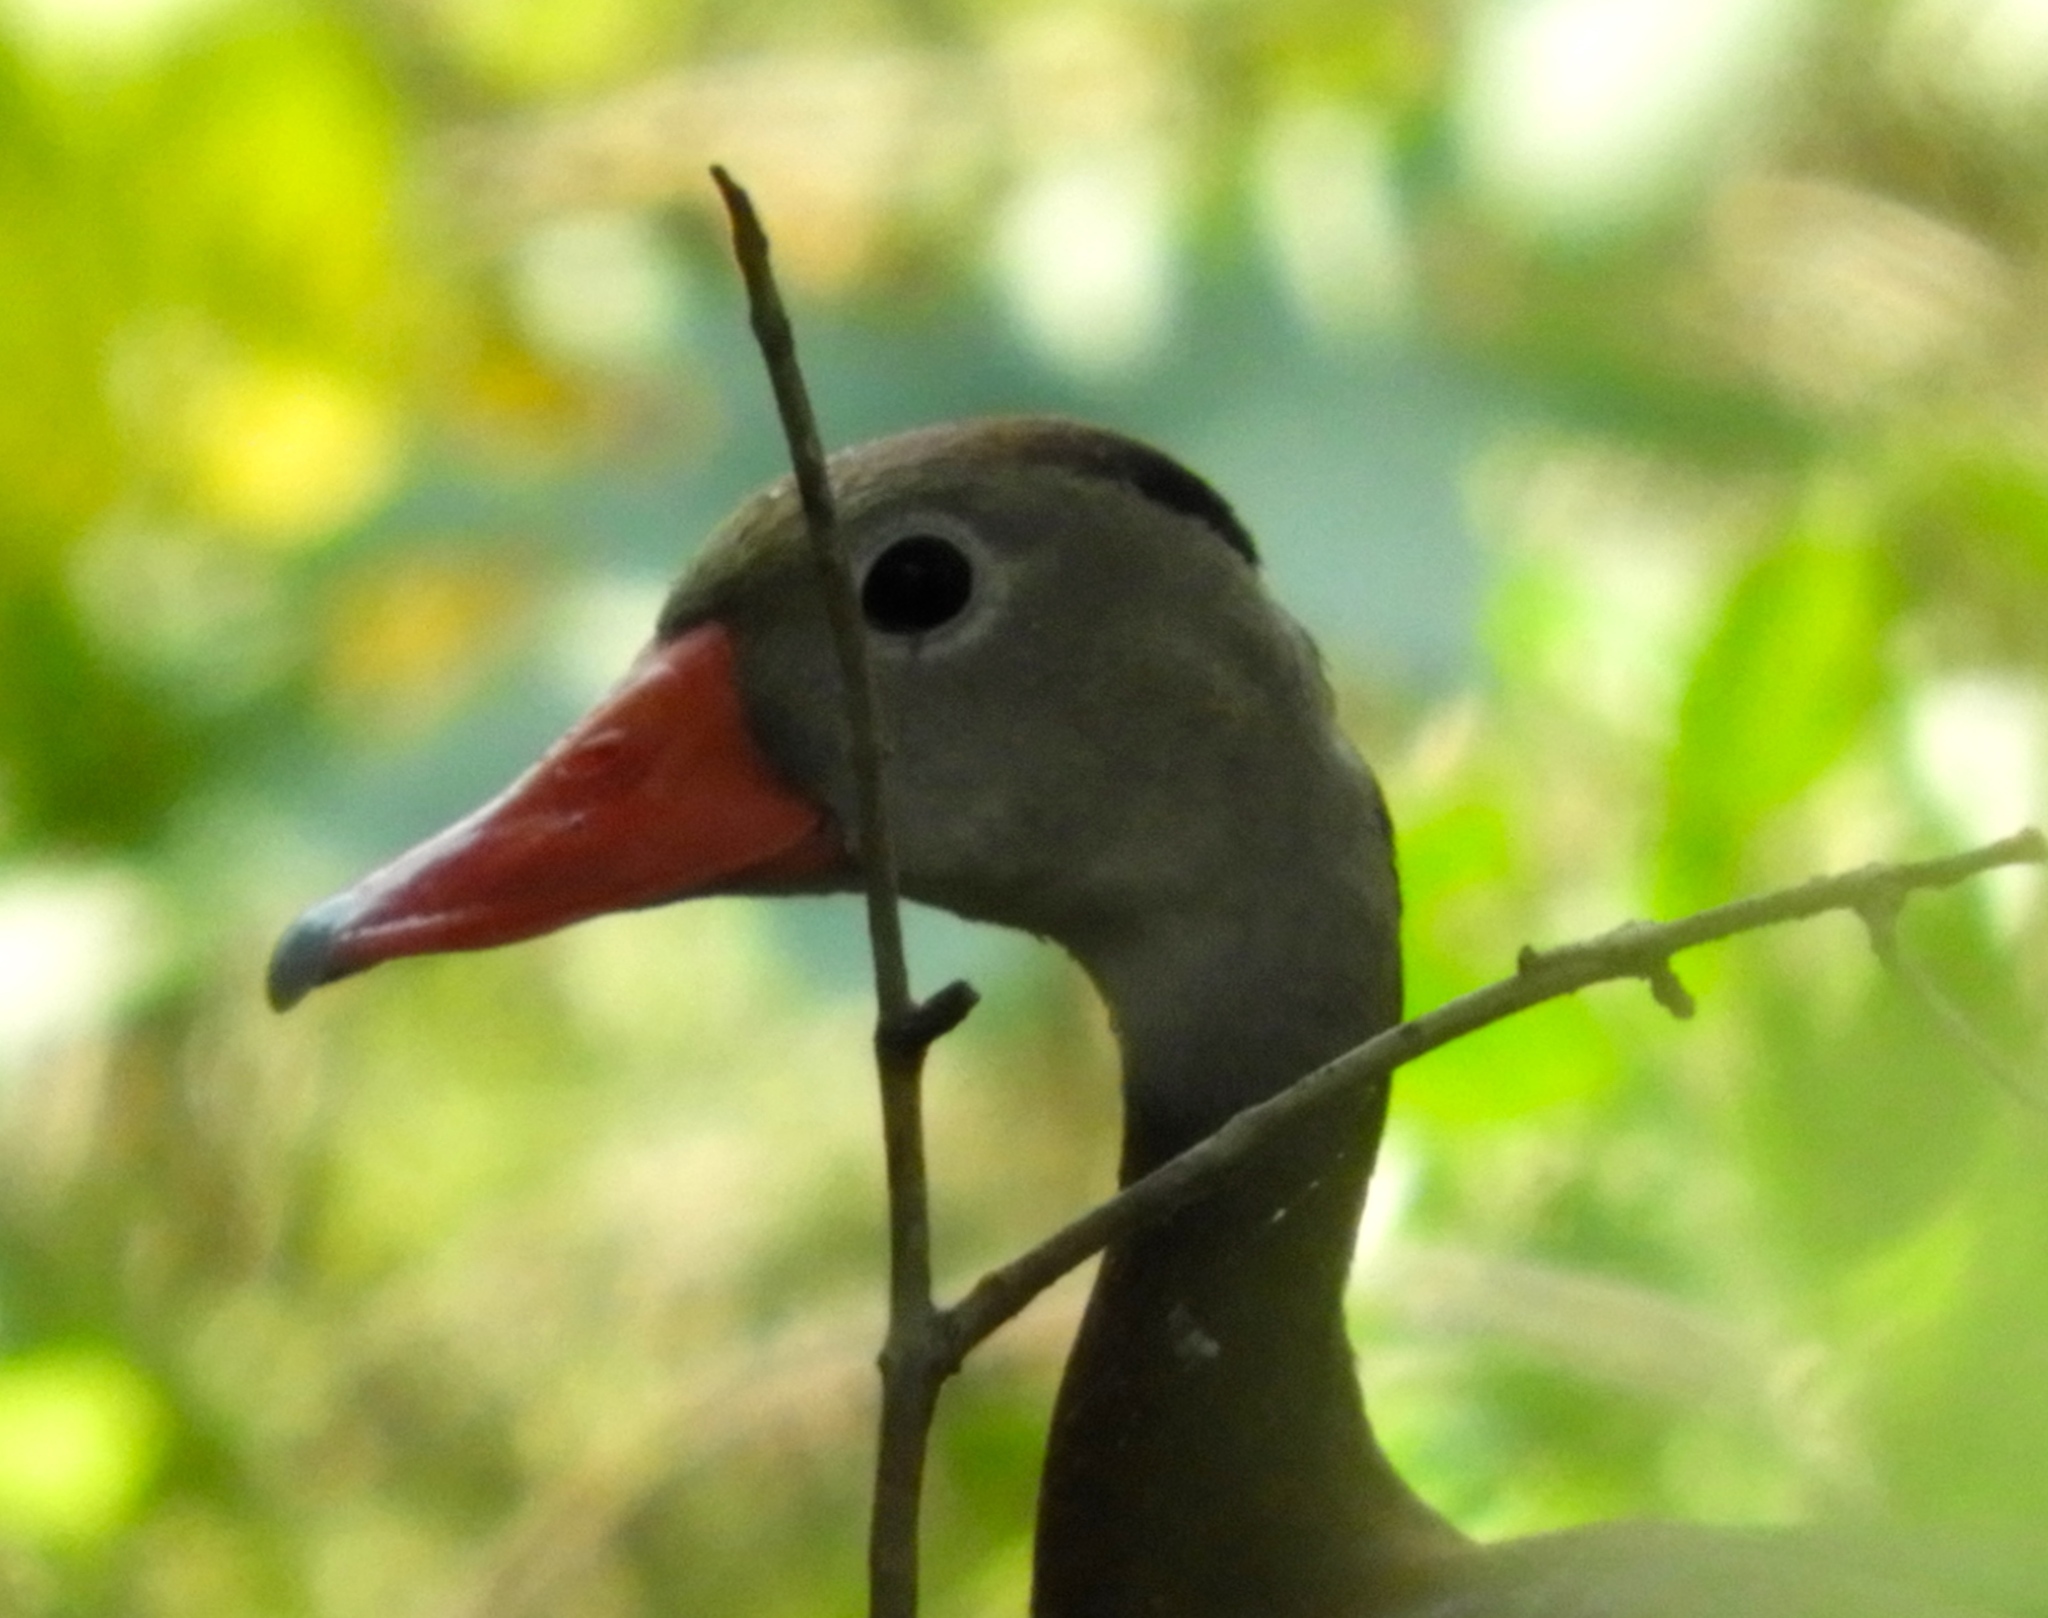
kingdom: Animalia
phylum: Chordata
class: Aves
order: Anseriformes
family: Anatidae
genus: Dendrocygna
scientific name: Dendrocygna autumnalis
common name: Black-bellied whistling duck
